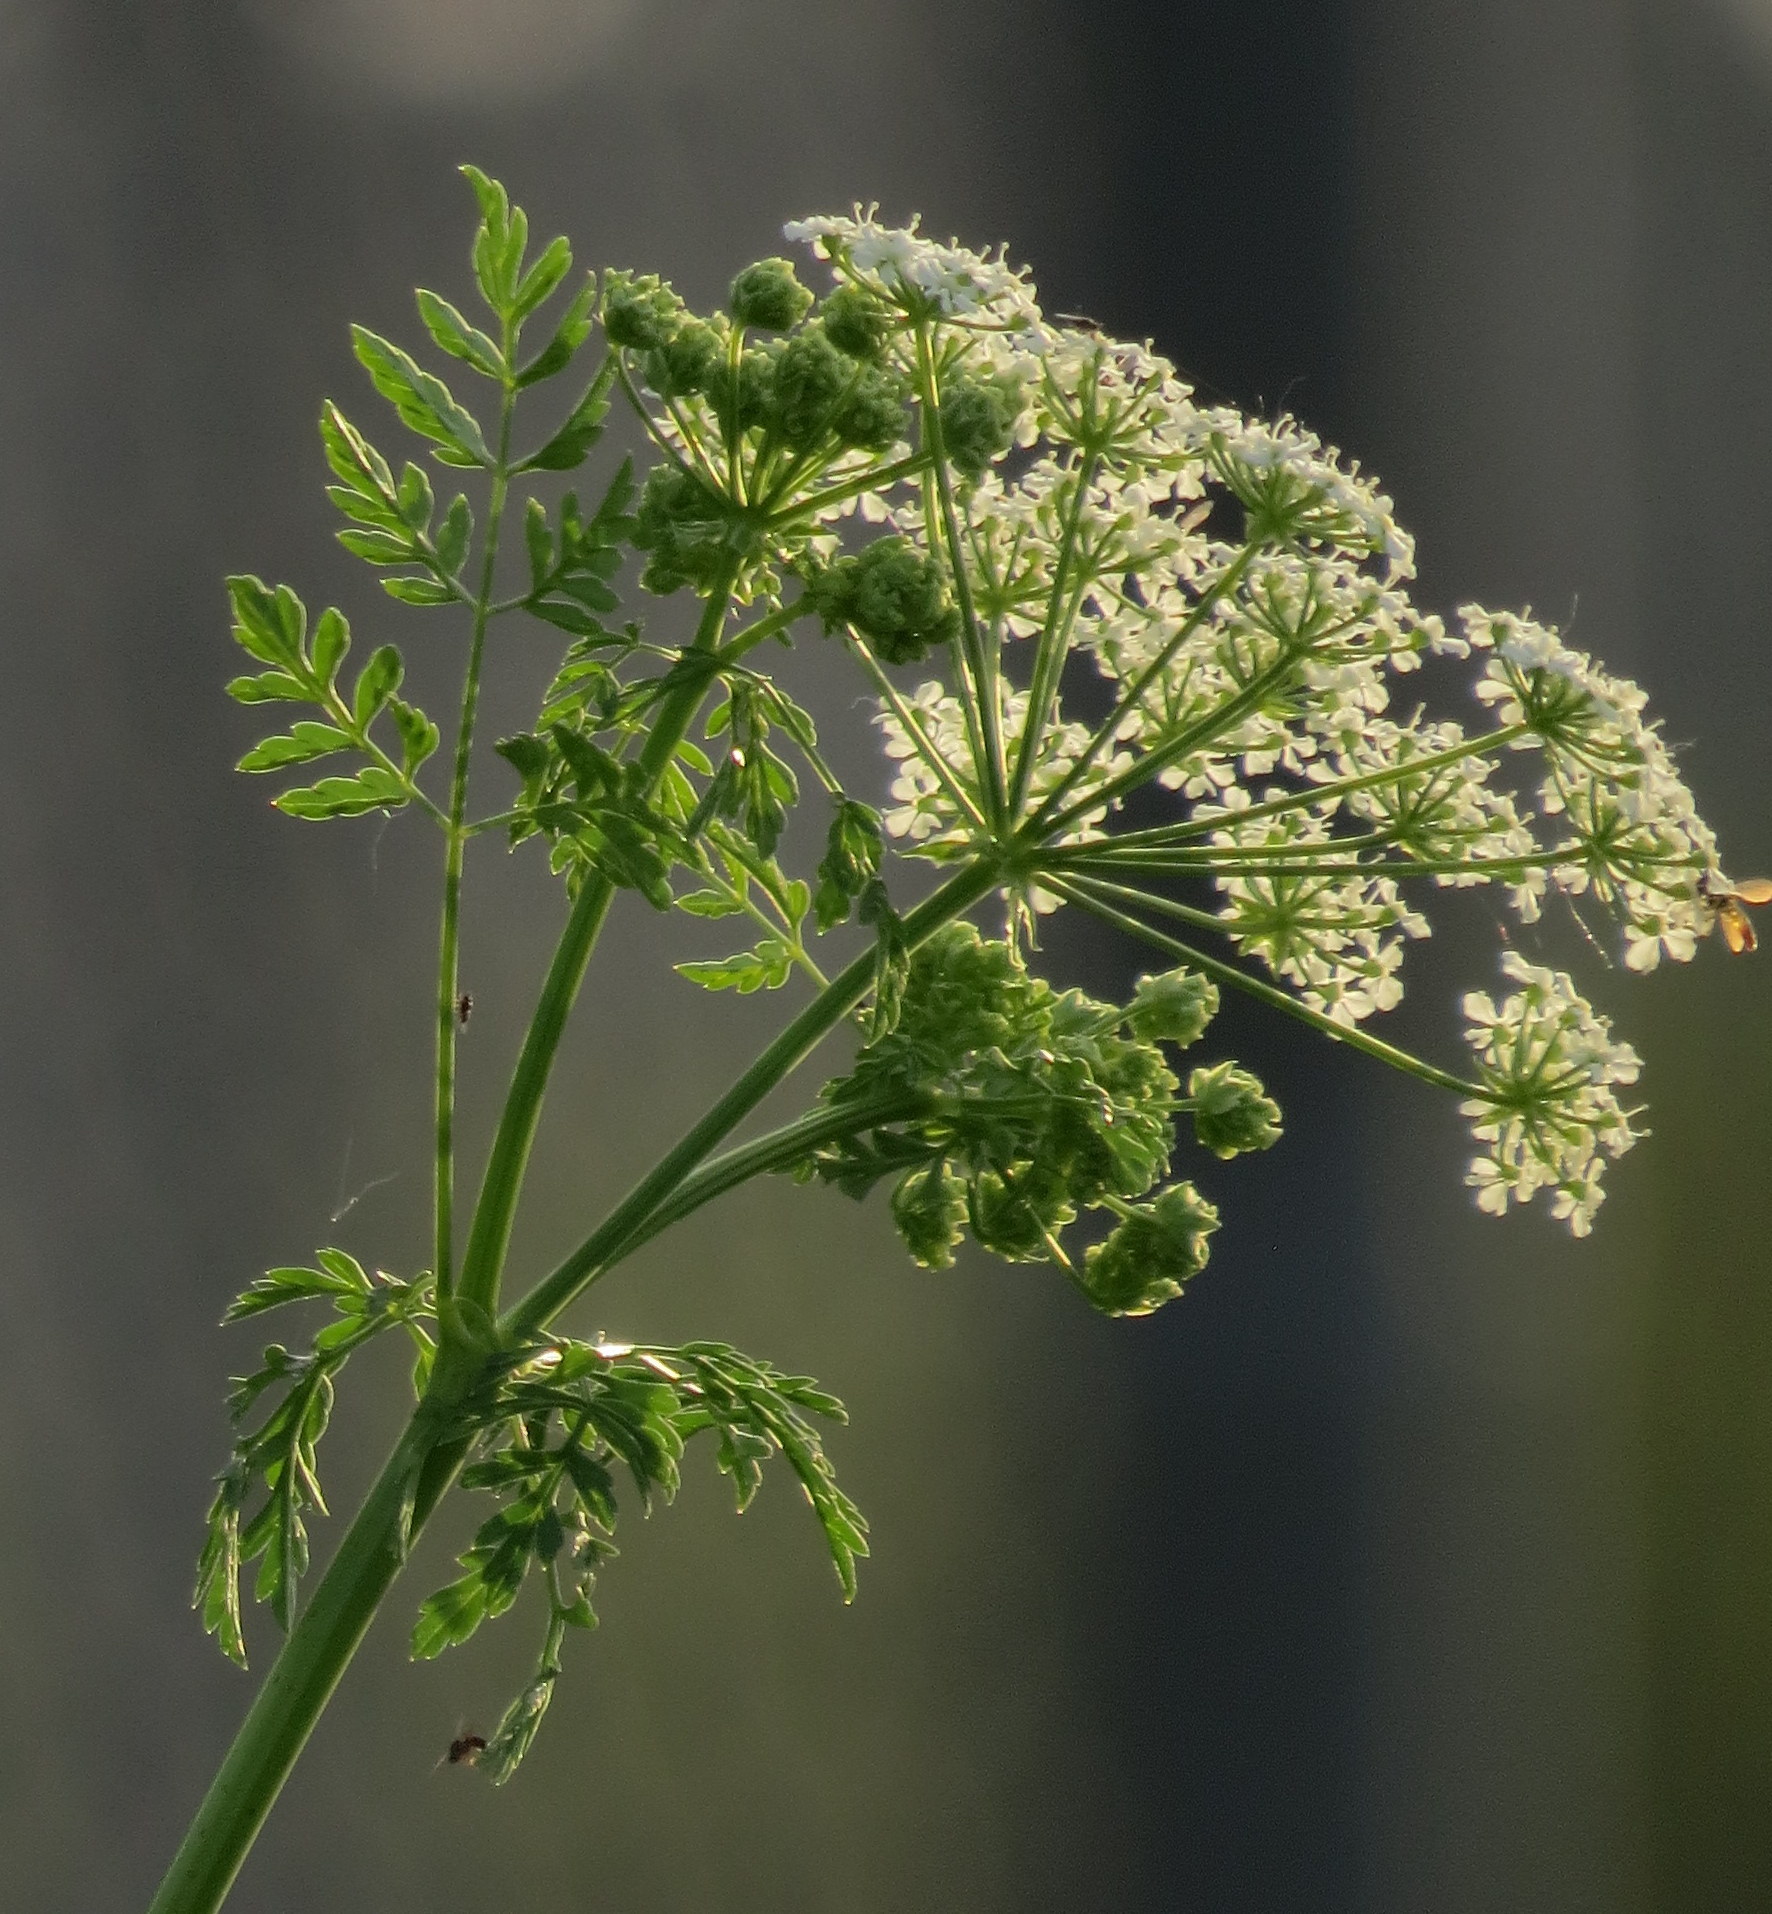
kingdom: Plantae
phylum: Tracheophyta
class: Magnoliopsida
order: Apiales
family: Apiaceae
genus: Conium
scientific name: Conium maculatum
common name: Hemlock
